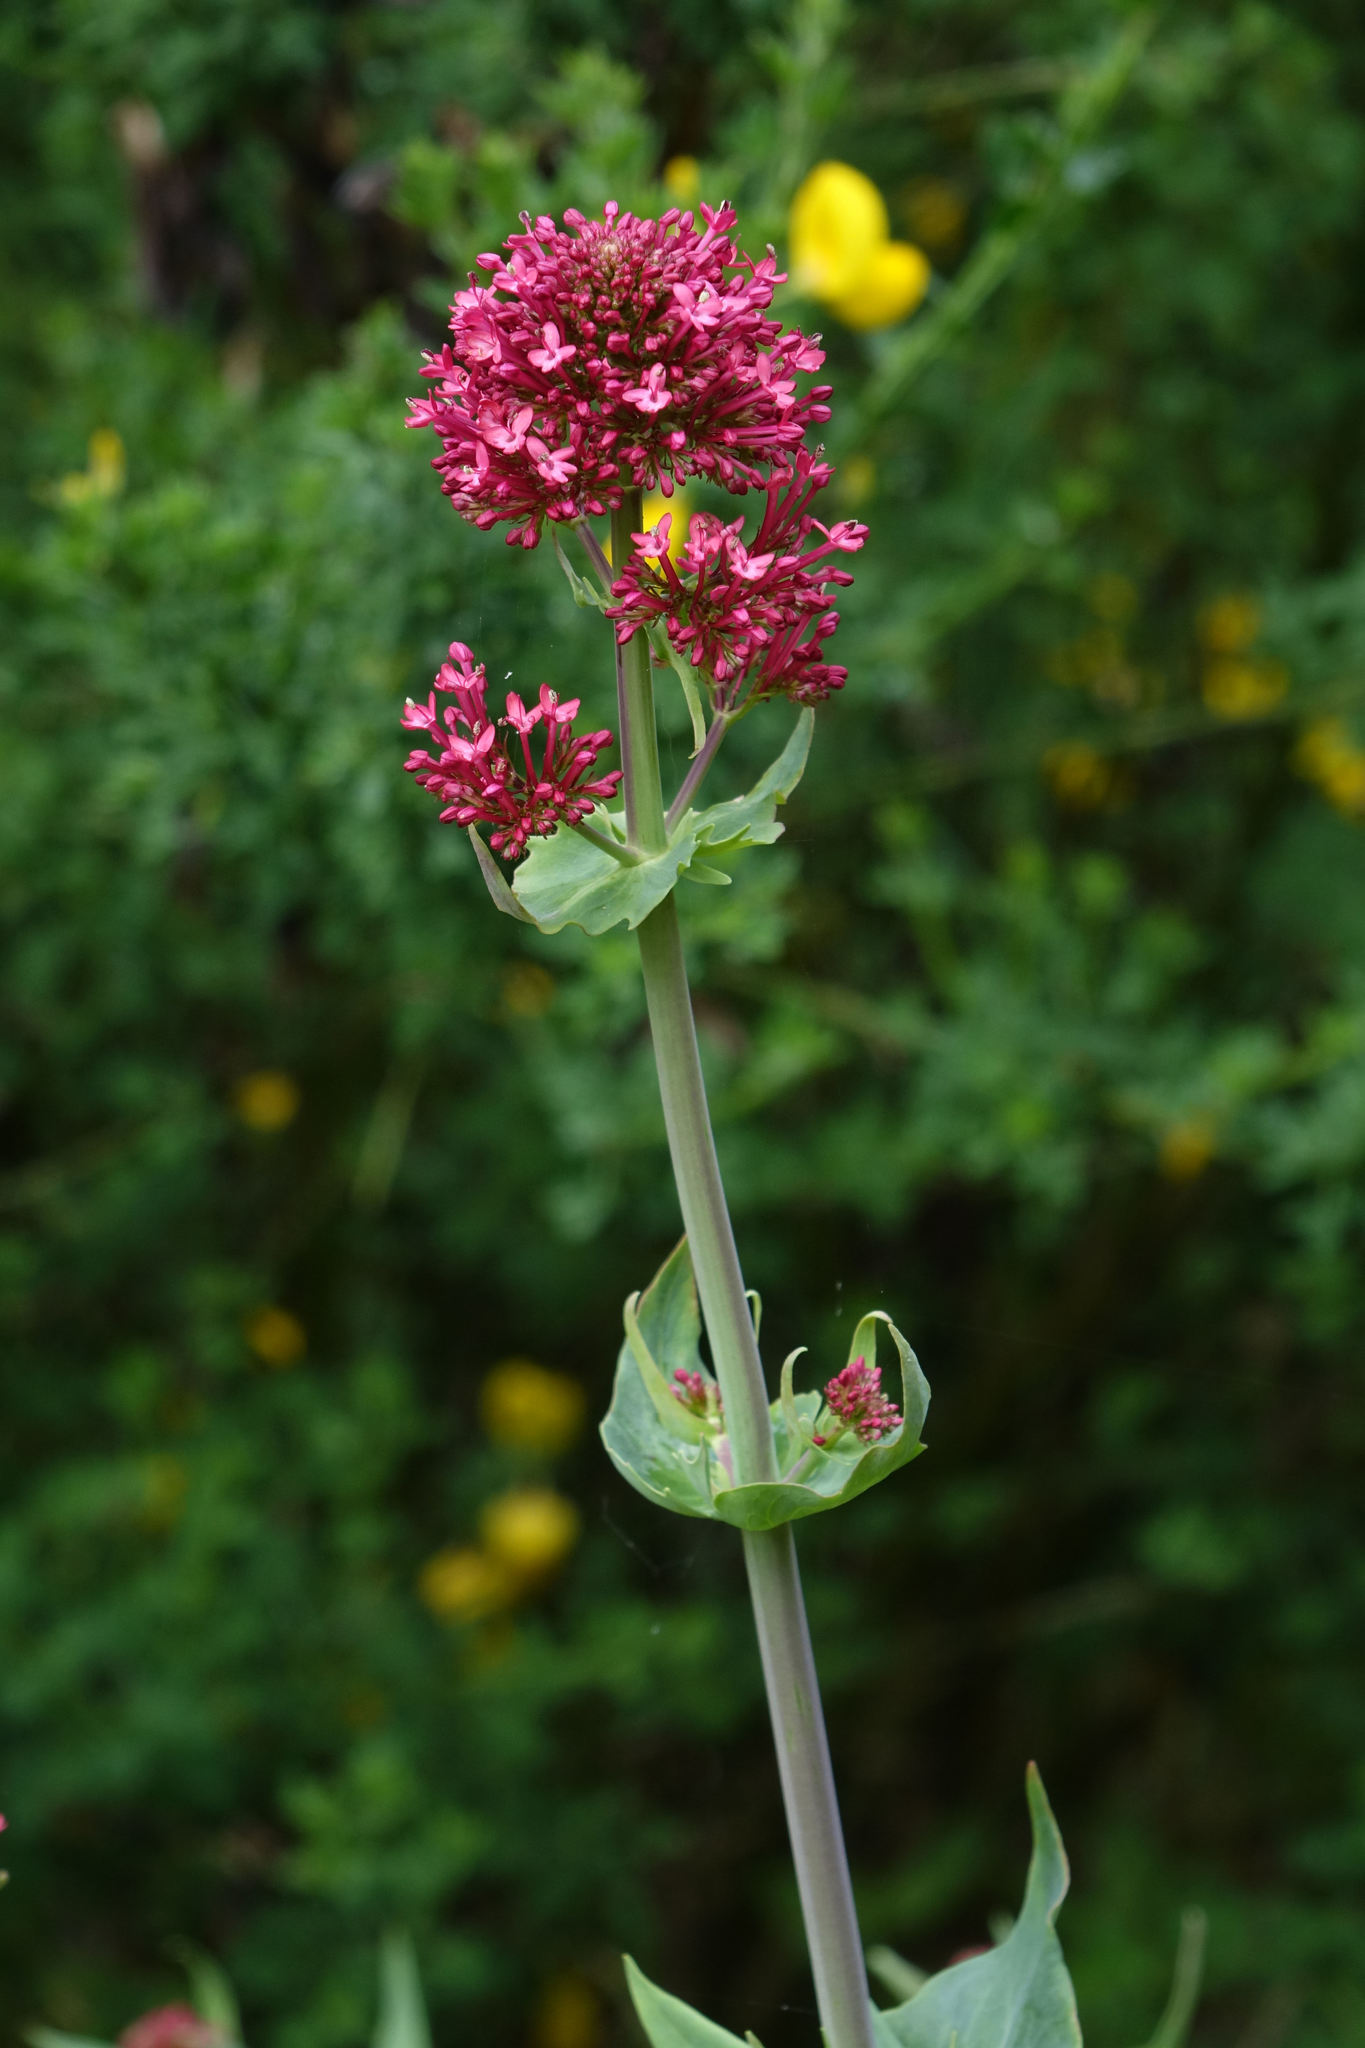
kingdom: Plantae
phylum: Tracheophyta
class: Magnoliopsida
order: Dipsacales
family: Caprifoliaceae
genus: Centranthus
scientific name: Centranthus ruber
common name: Red valerian
